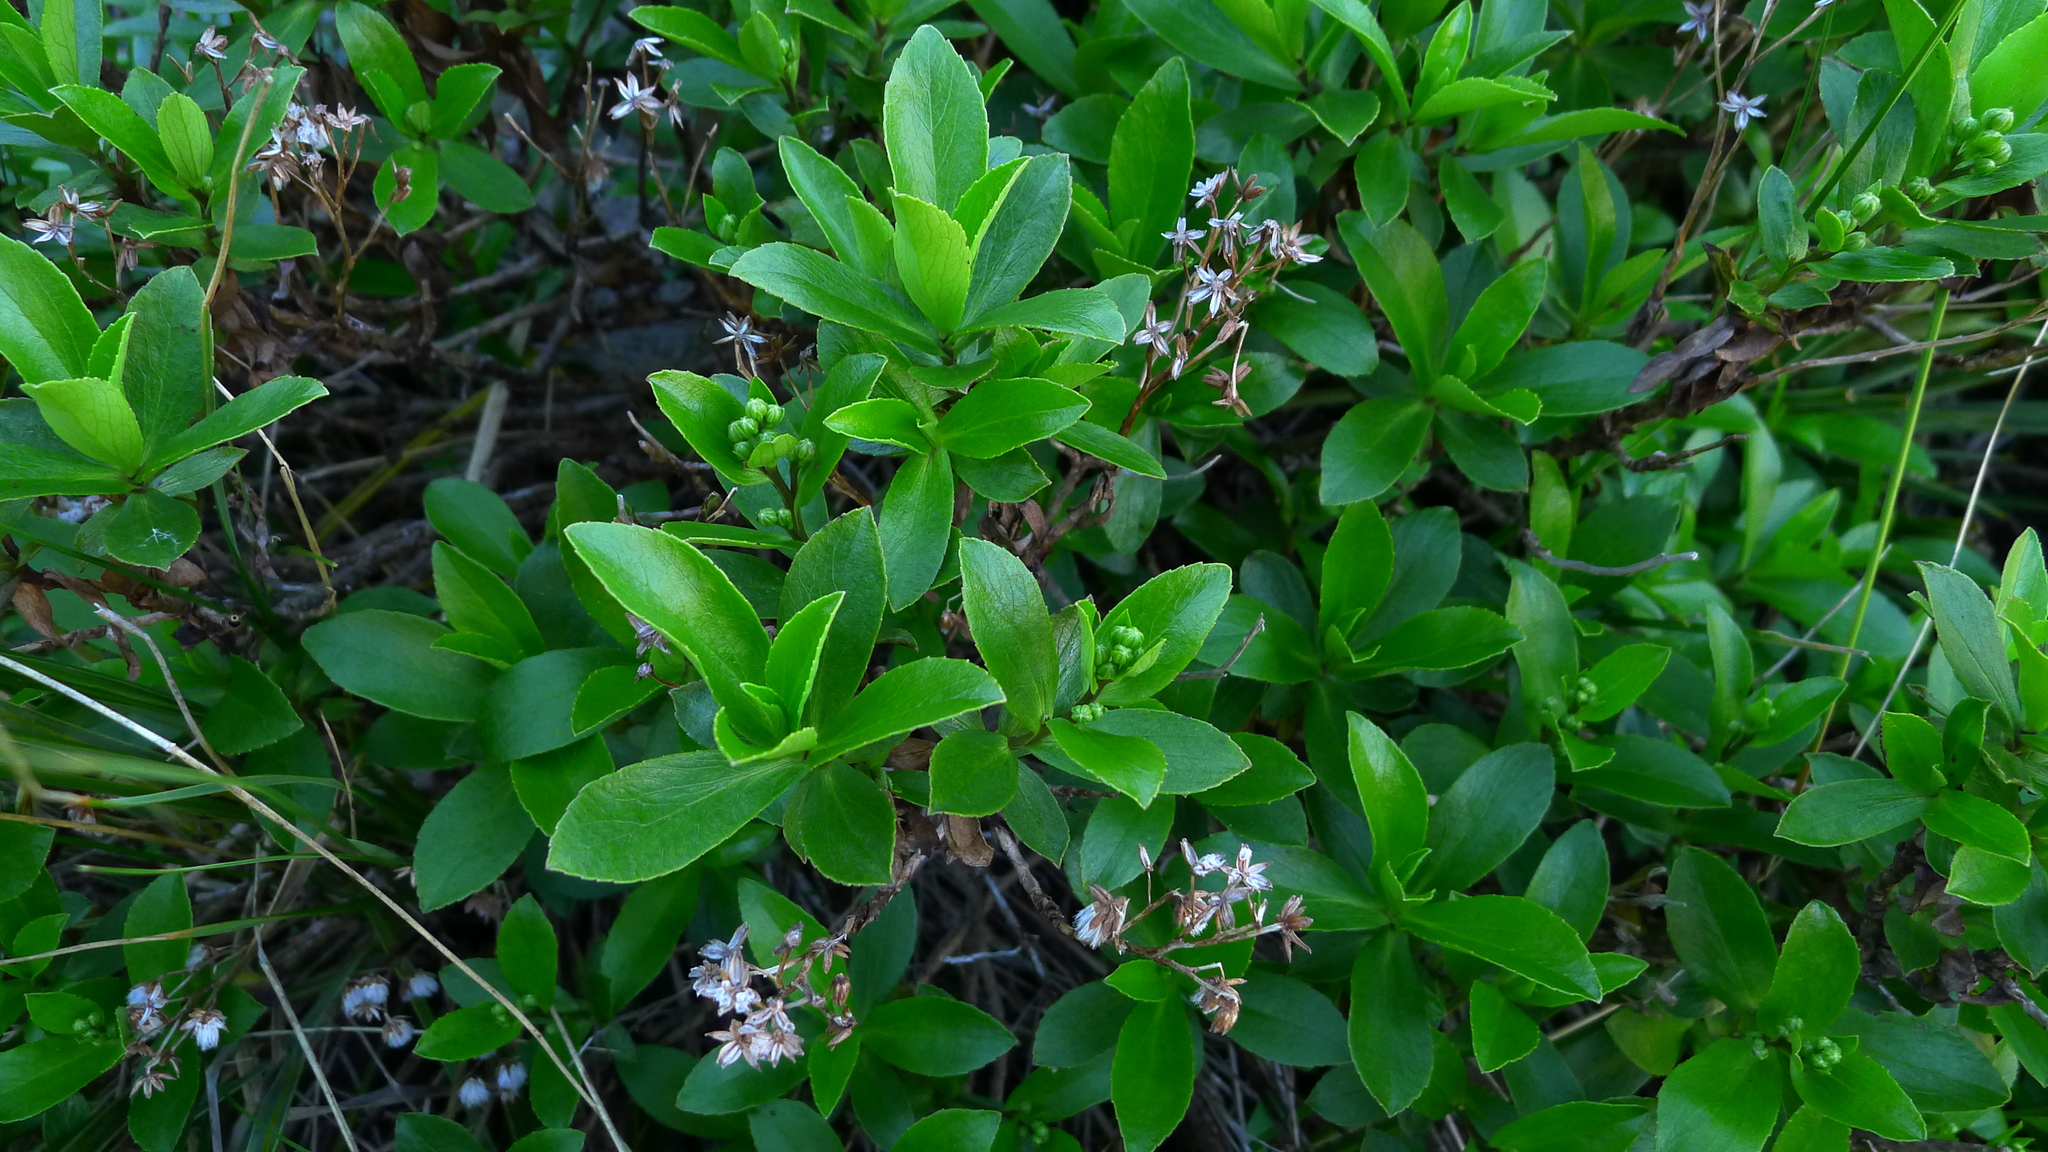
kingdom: Plantae
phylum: Tracheophyta
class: Magnoliopsida
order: Asterales
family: Asteraceae
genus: Traversia
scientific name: Traversia baccharoides
